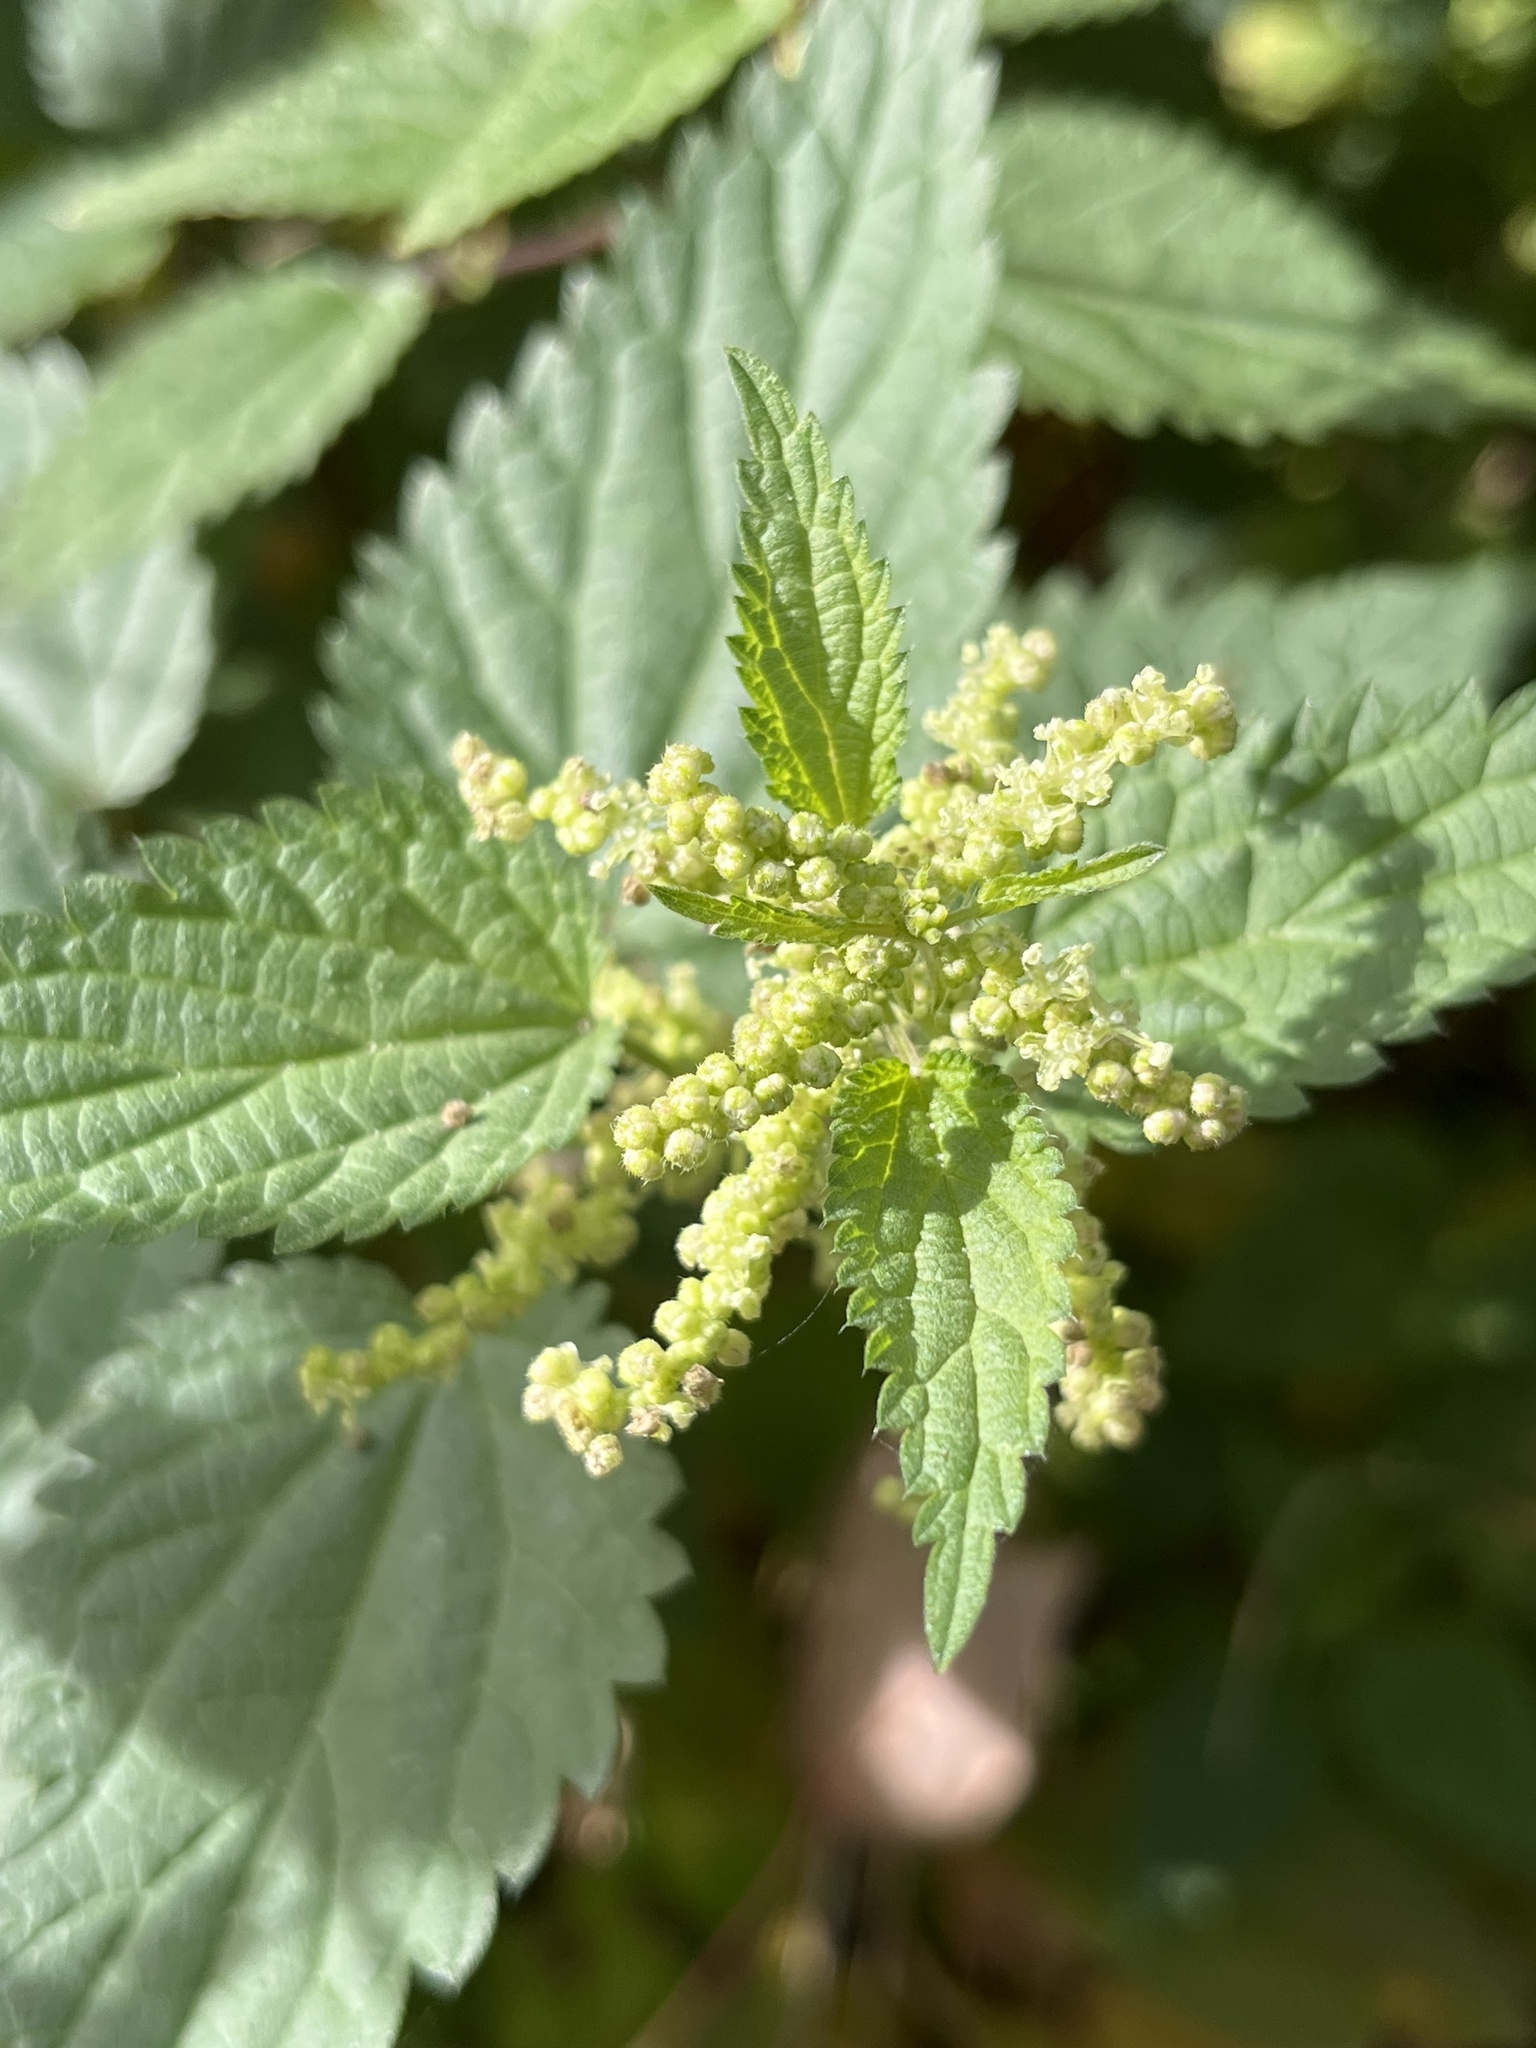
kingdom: Plantae
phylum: Tracheophyta
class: Magnoliopsida
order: Rosales
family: Urticaceae
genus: Urtica
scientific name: Urtica dioica
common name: Common nettle
